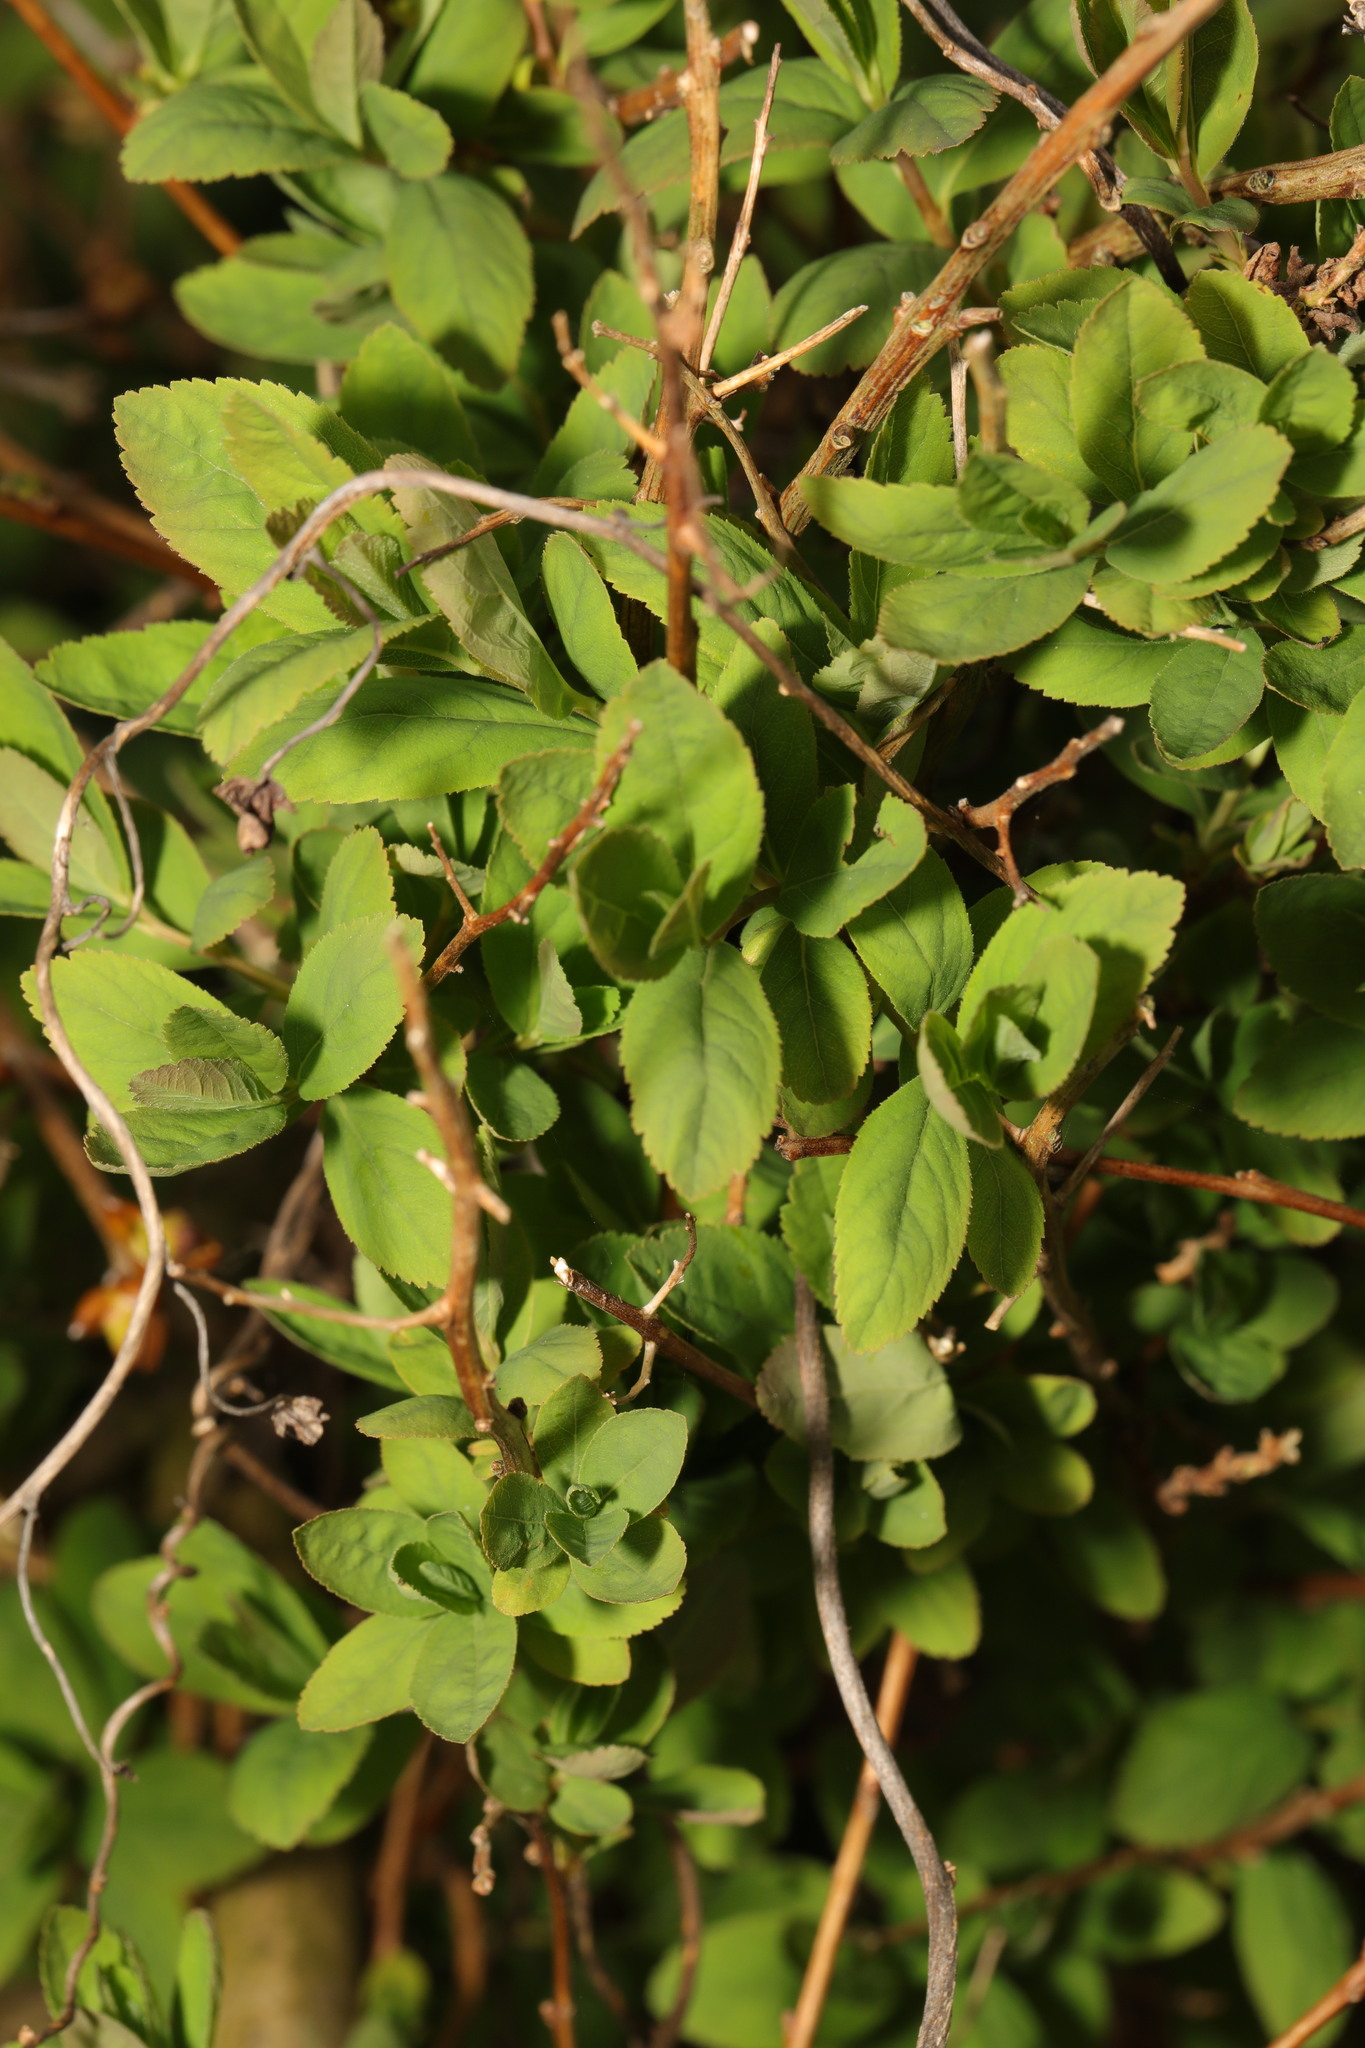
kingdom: Plantae
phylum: Tracheophyta
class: Magnoliopsida
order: Rosales
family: Rosaceae
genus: Spiraea
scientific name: Spiraea douglasii
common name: Steeplebush
